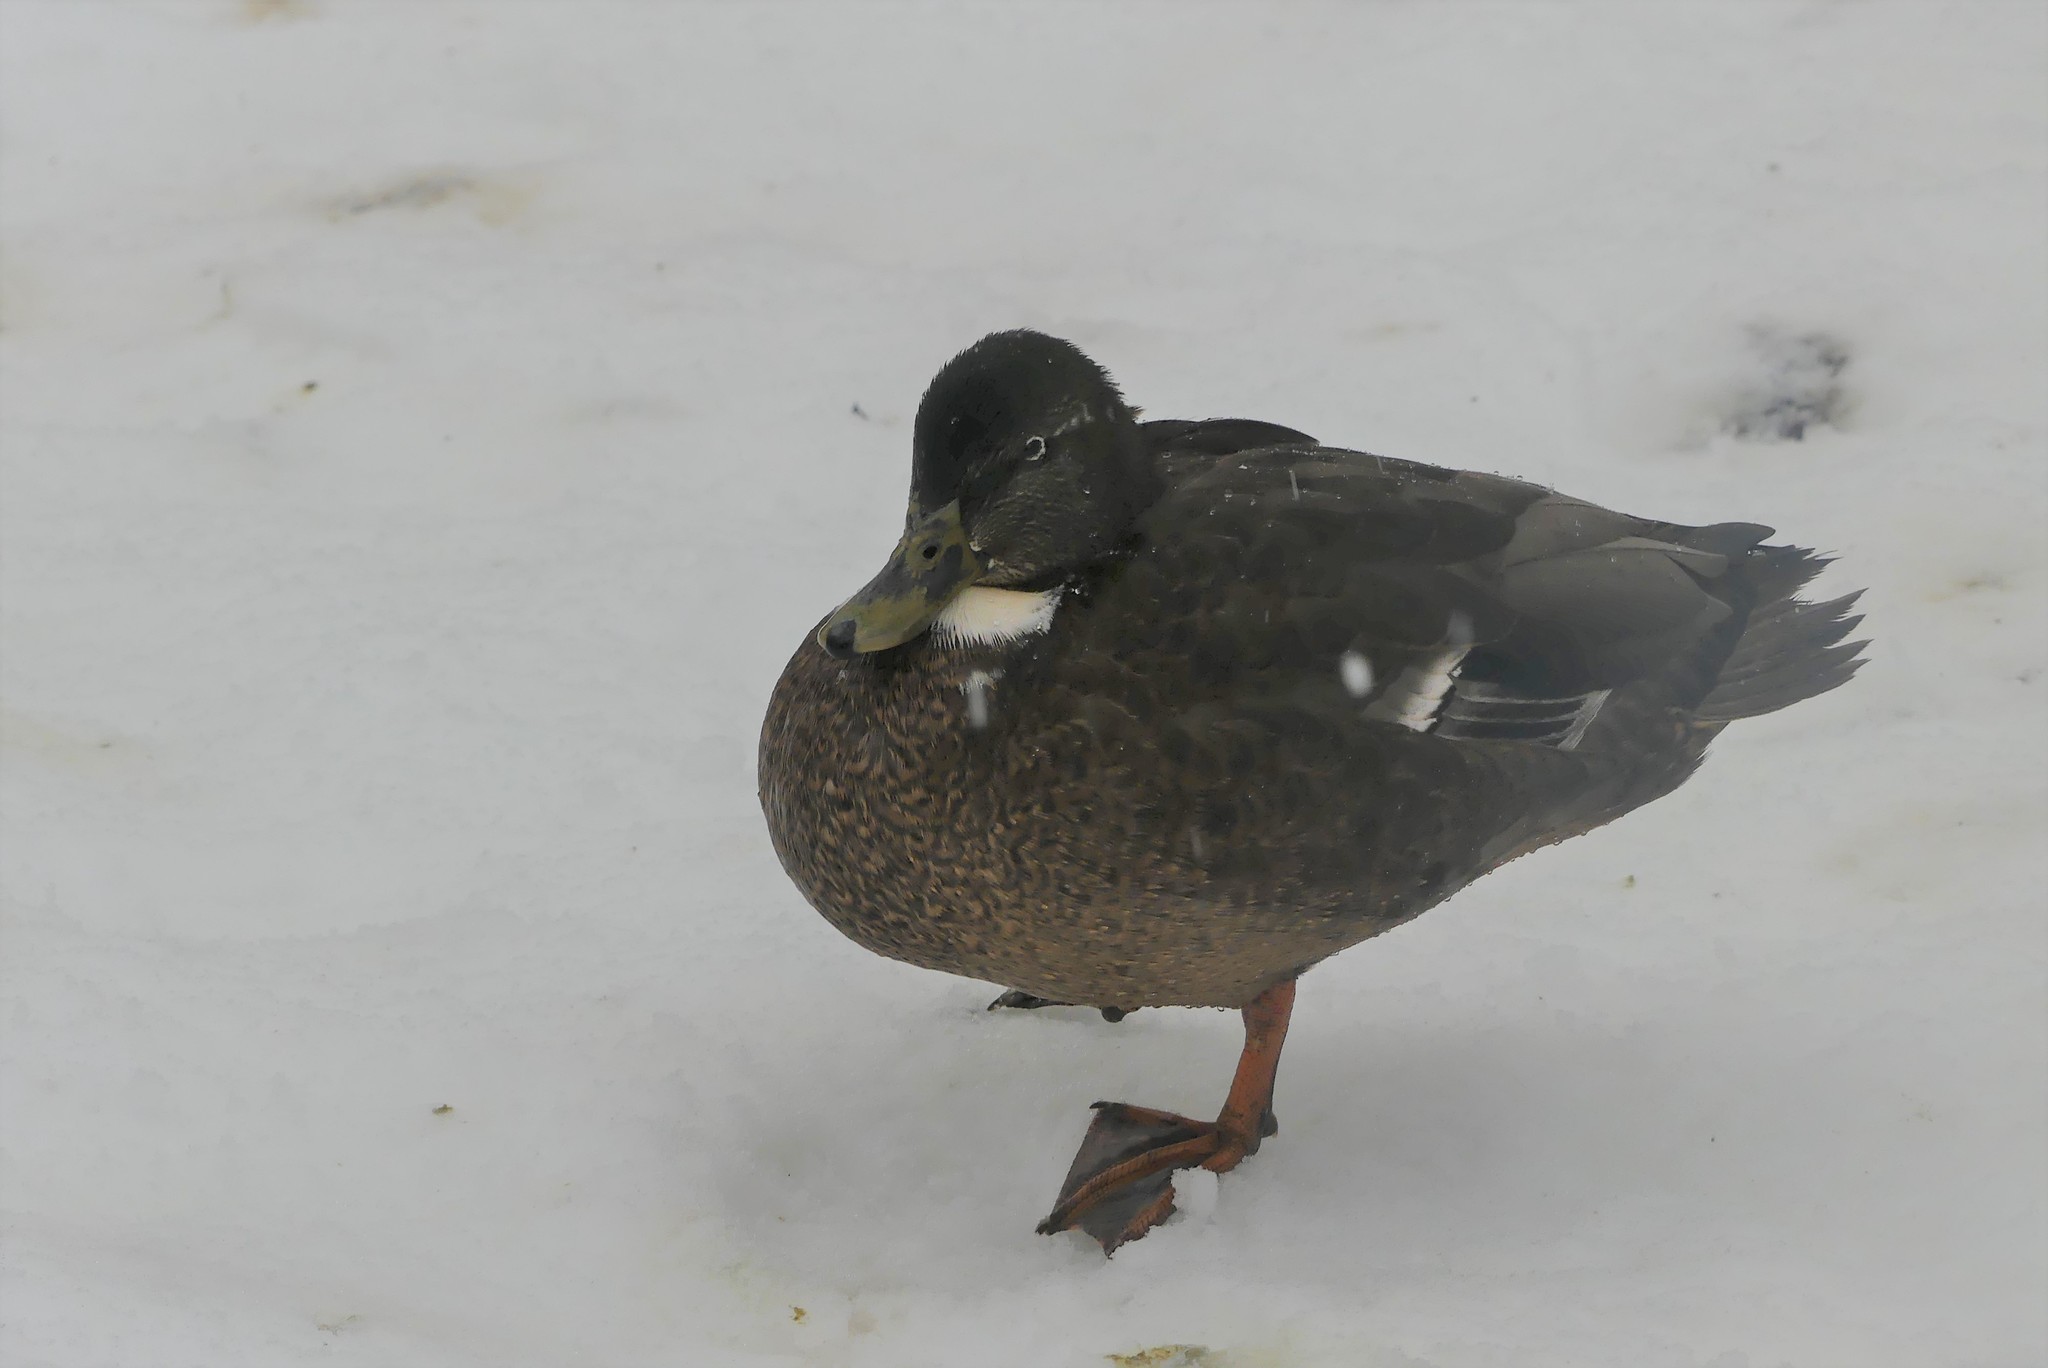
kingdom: Animalia
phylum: Chordata
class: Aves
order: Anseriformes
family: Anatidae
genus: Anas
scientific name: Anas platyrhynchos
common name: Mallard
